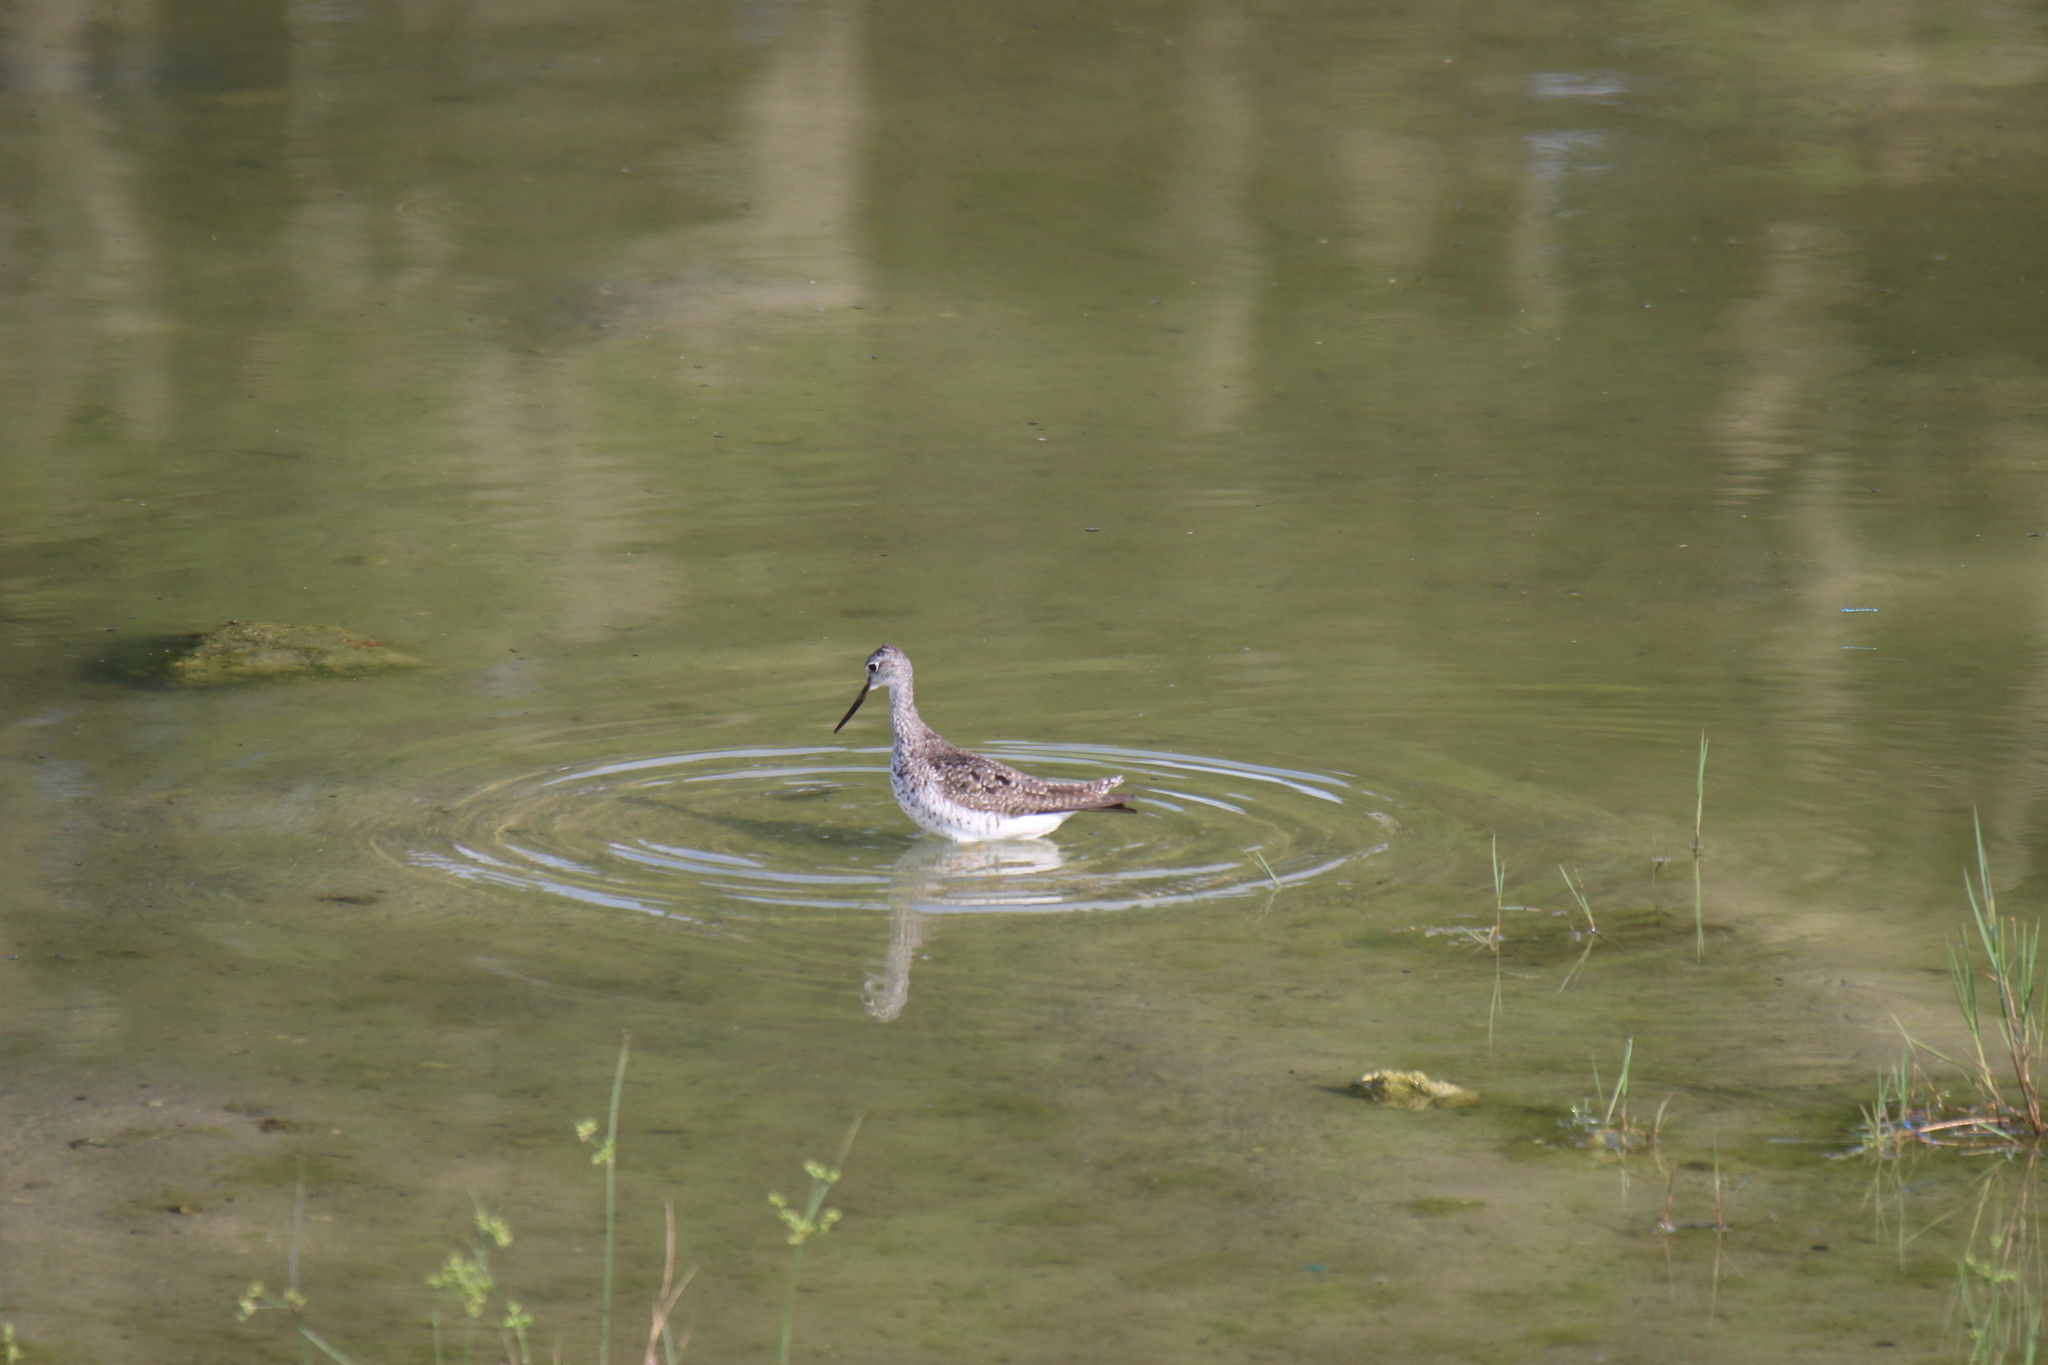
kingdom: Animalia
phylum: Chordata
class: Aves
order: Charadriiformes
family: Scolopacidae
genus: Tringa
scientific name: Tringa melanoleuca
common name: Greater yellowlegs
